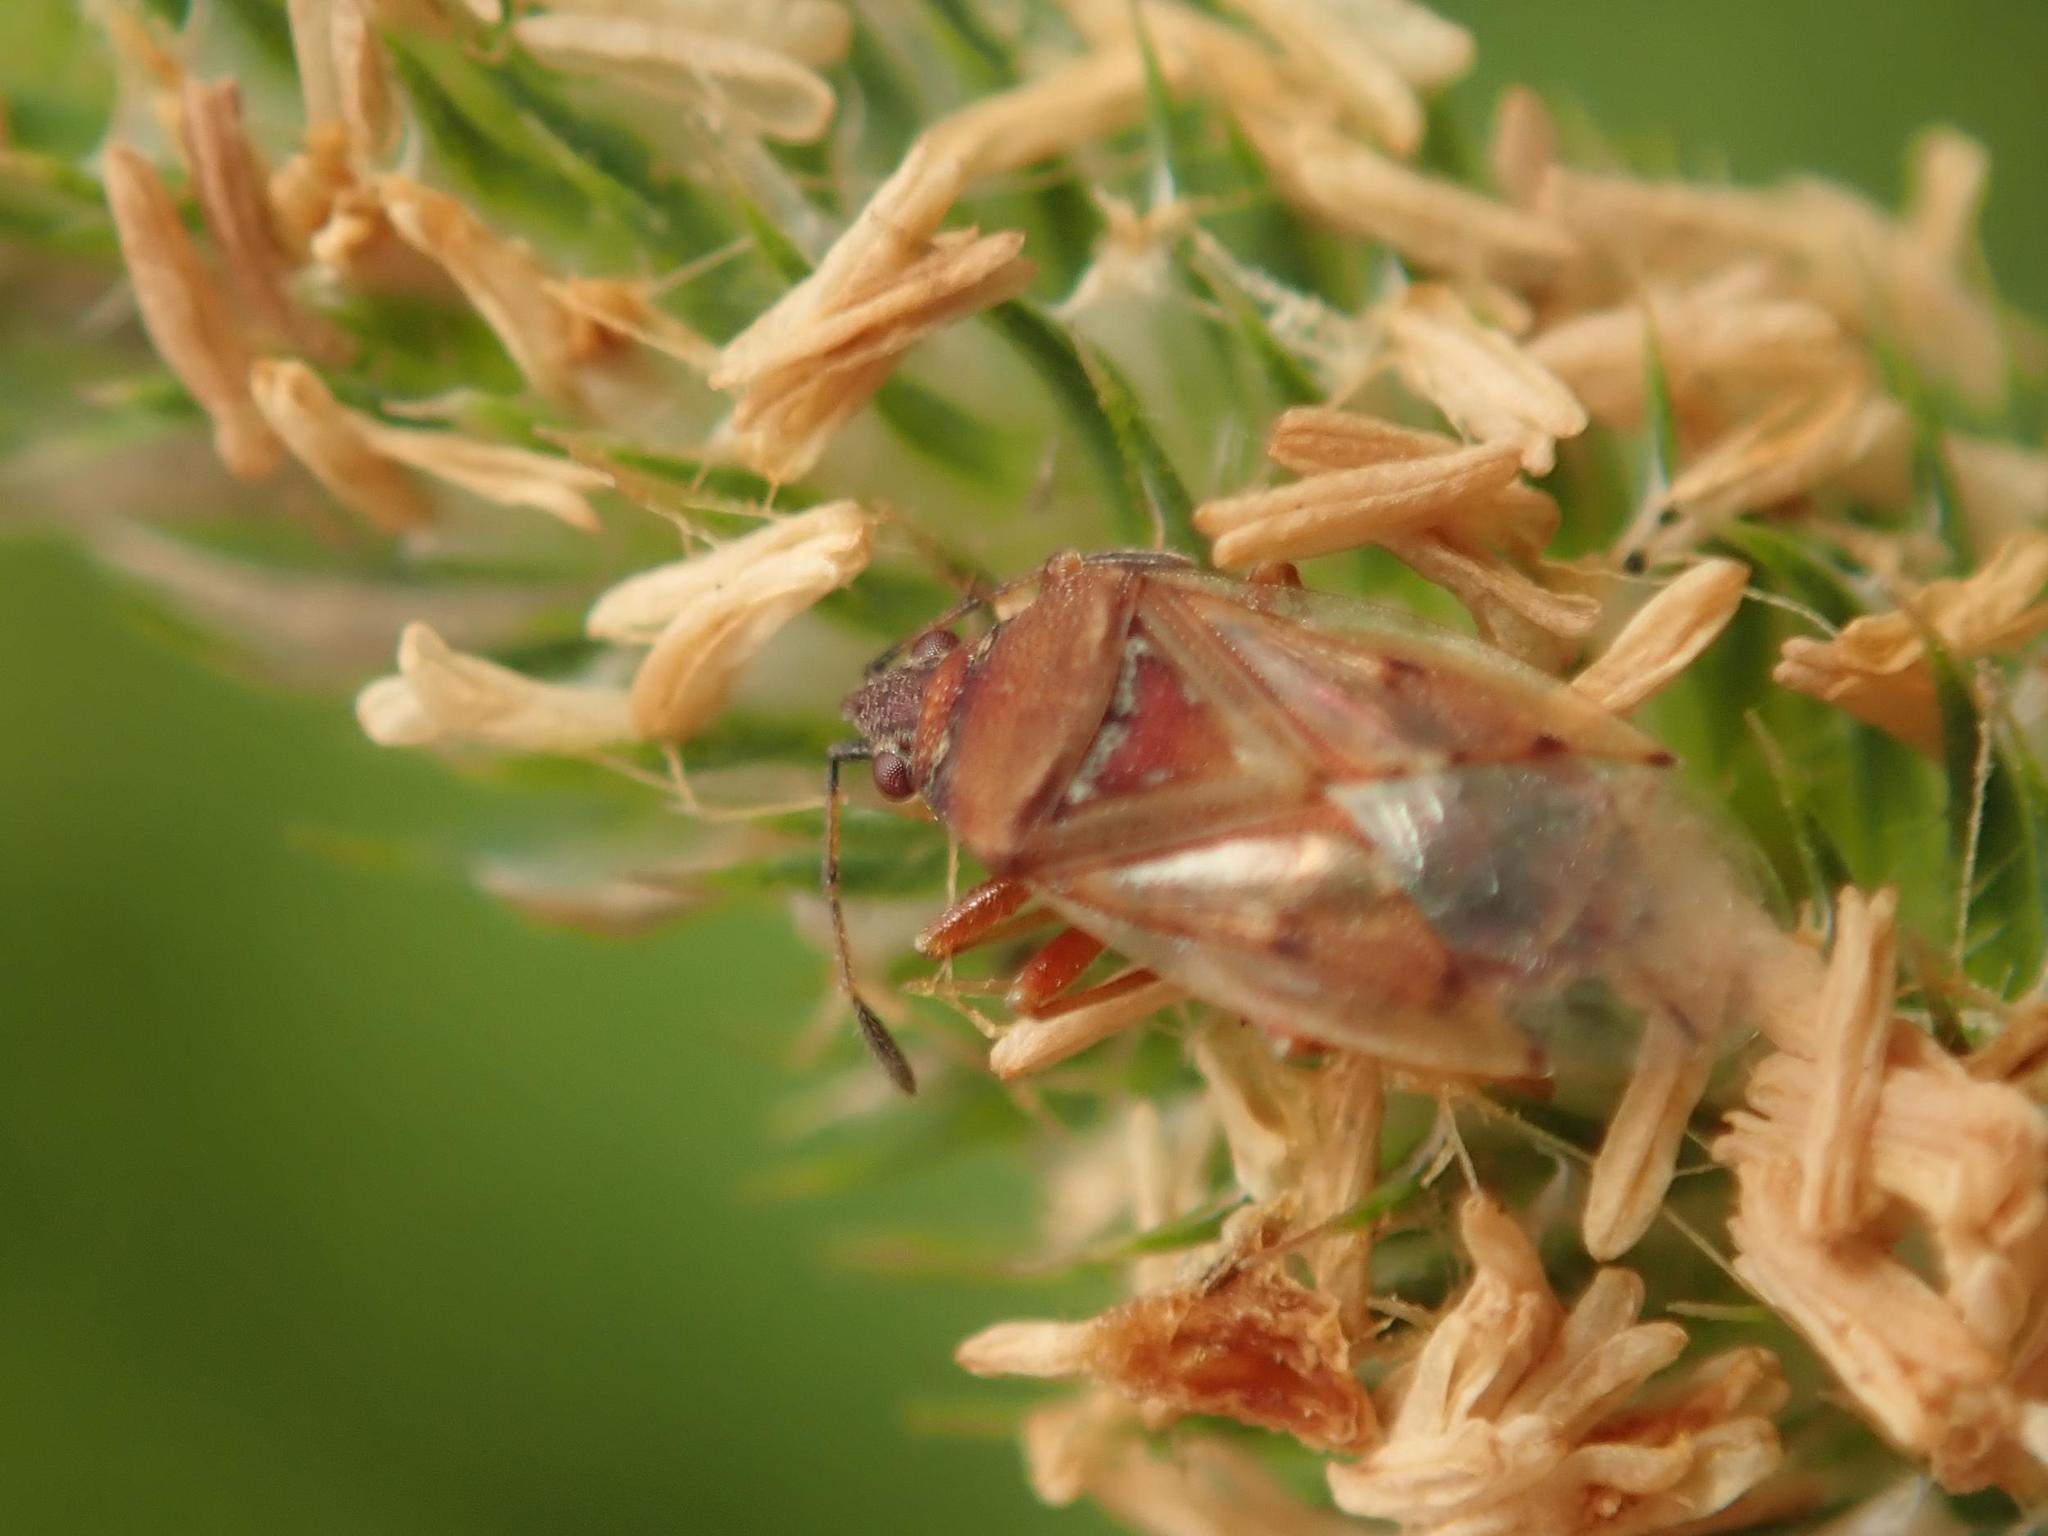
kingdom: Animalia
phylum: Arthropoda
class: Insecta
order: Hemiptera
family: Lygaeidae
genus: Kleidocerys
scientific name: Kleidocerys resedae
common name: Birch catkin bug
